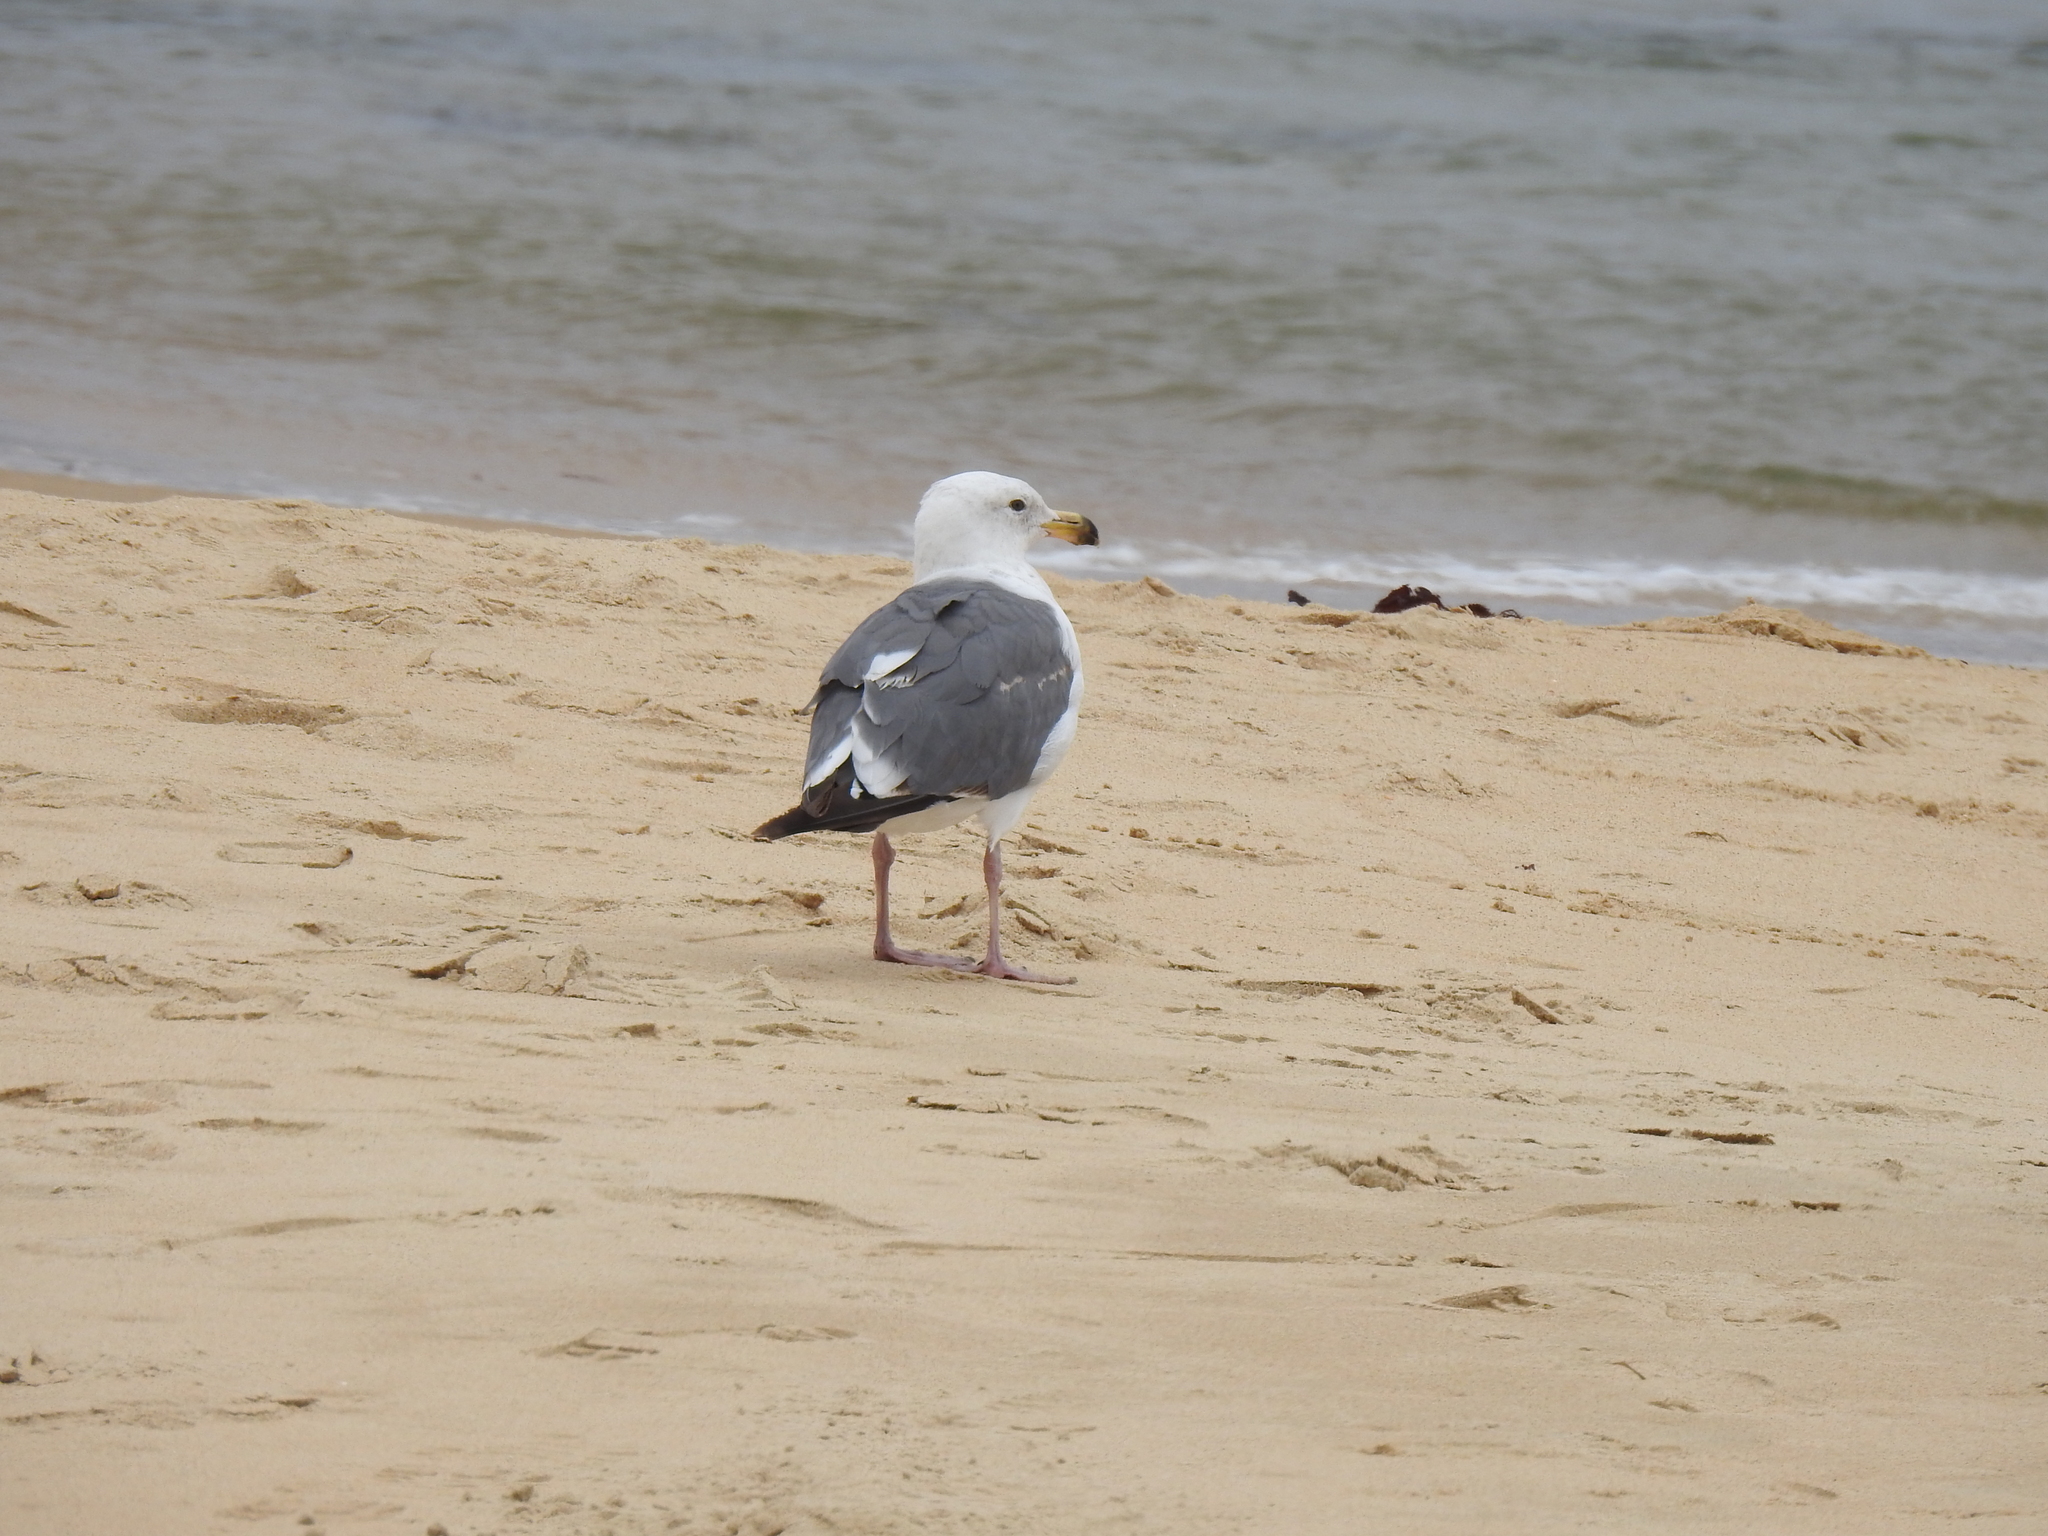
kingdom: Animalia
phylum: Chordata
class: Aves
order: Charadriiformes
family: Laridae
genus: Larus
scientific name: Larus occidentalis
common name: Western gull
